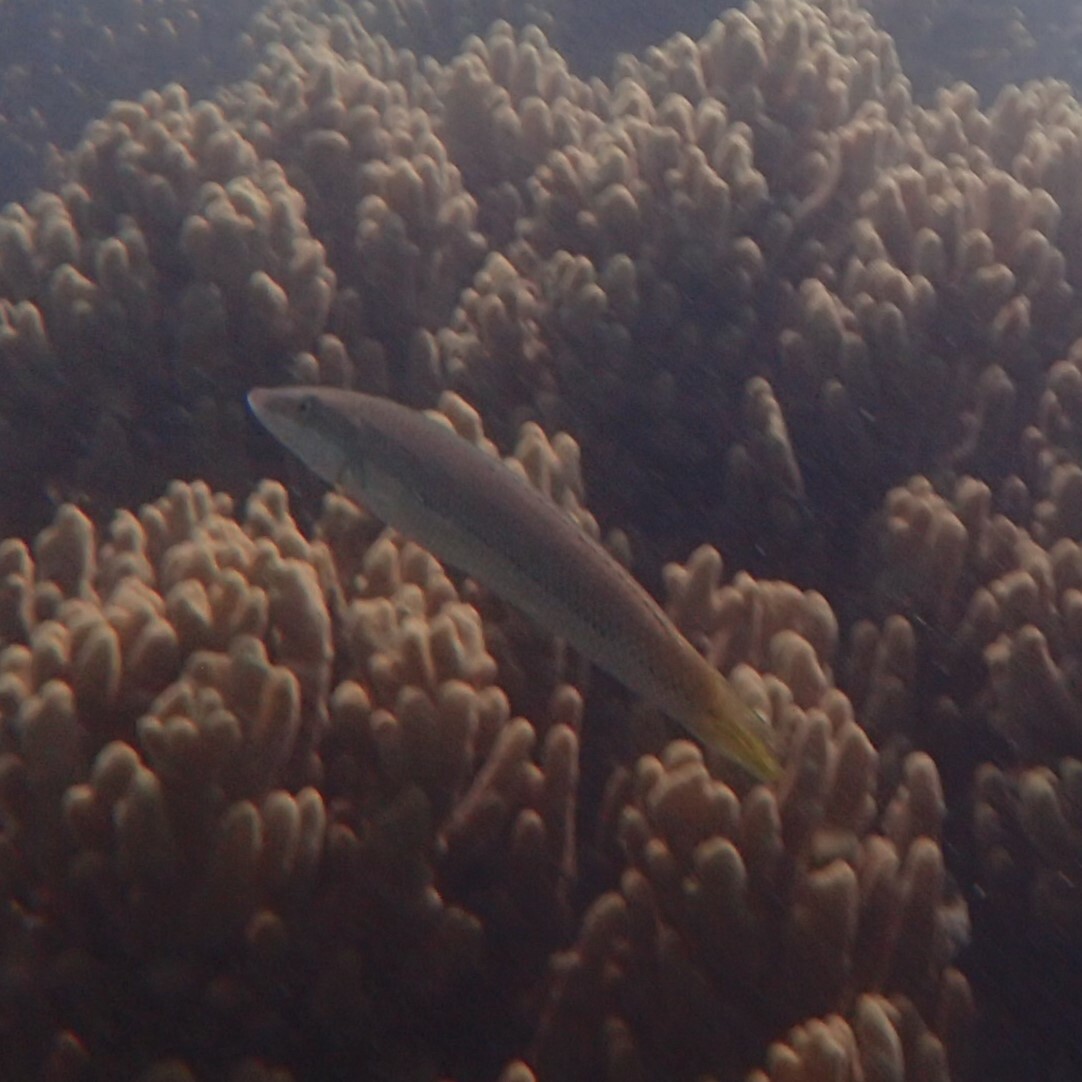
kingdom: Animalia
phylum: Chordata
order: Perciformes
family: Labridae
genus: Cheilio
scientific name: Cheilio inermis
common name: Cigar wrasse
